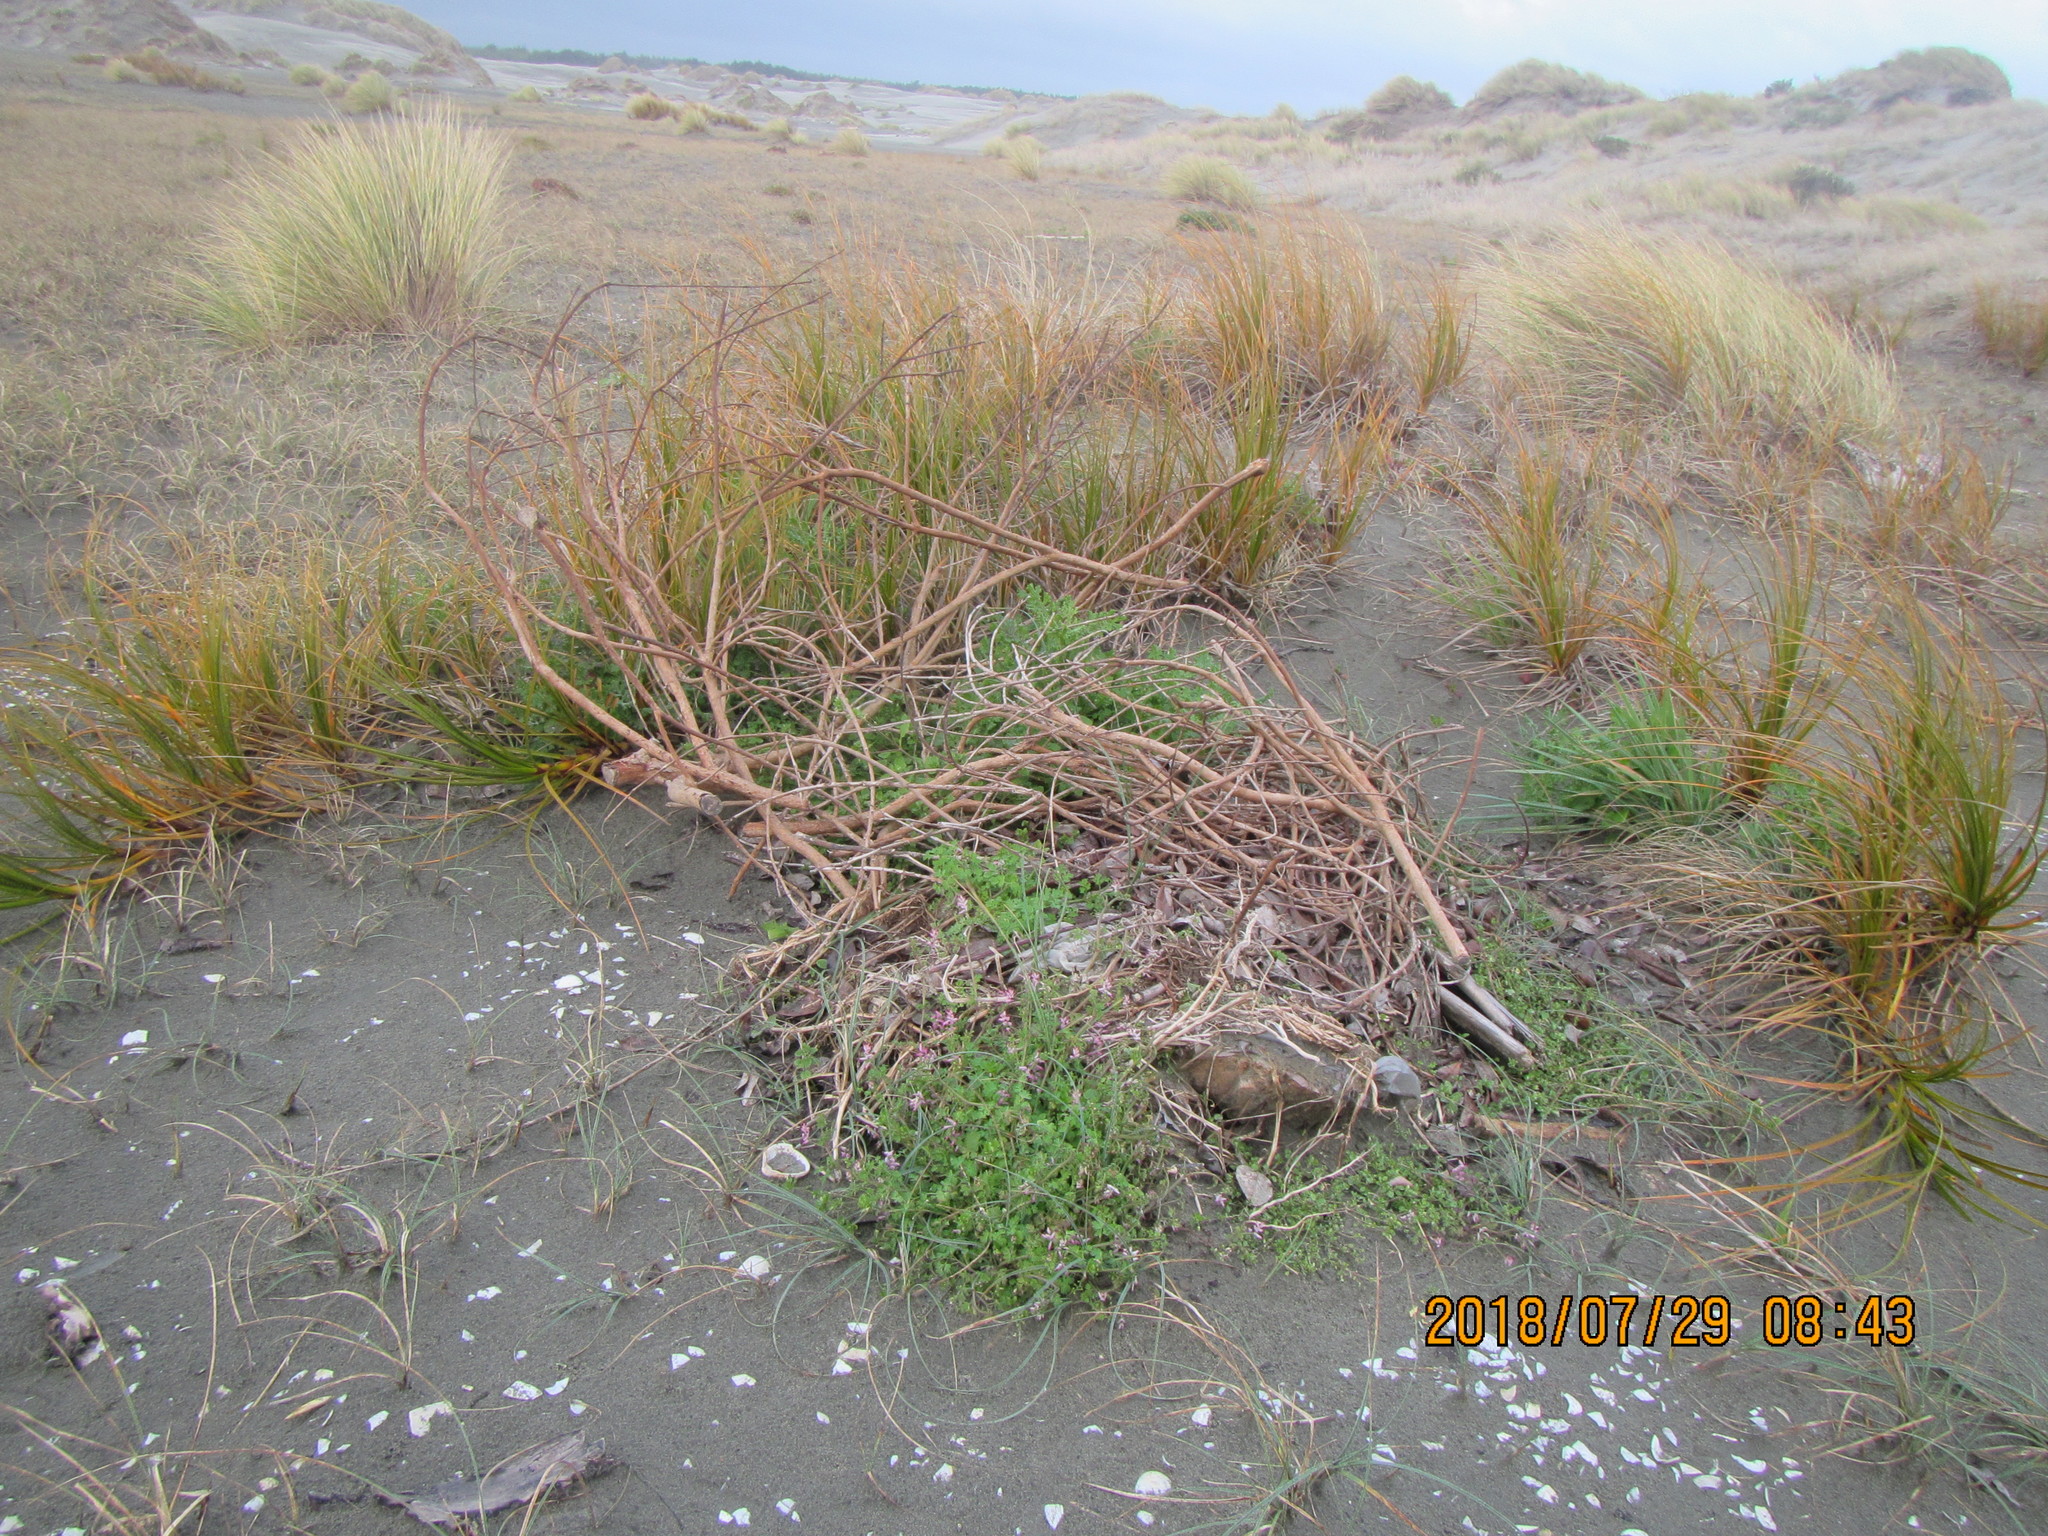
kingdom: Plantae
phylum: Tracheophyta
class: Magnoliopsida
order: Ranunculales
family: Papaveraceae
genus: Fumaria
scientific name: Fumaria muralis
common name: Common ramping-fumitory
